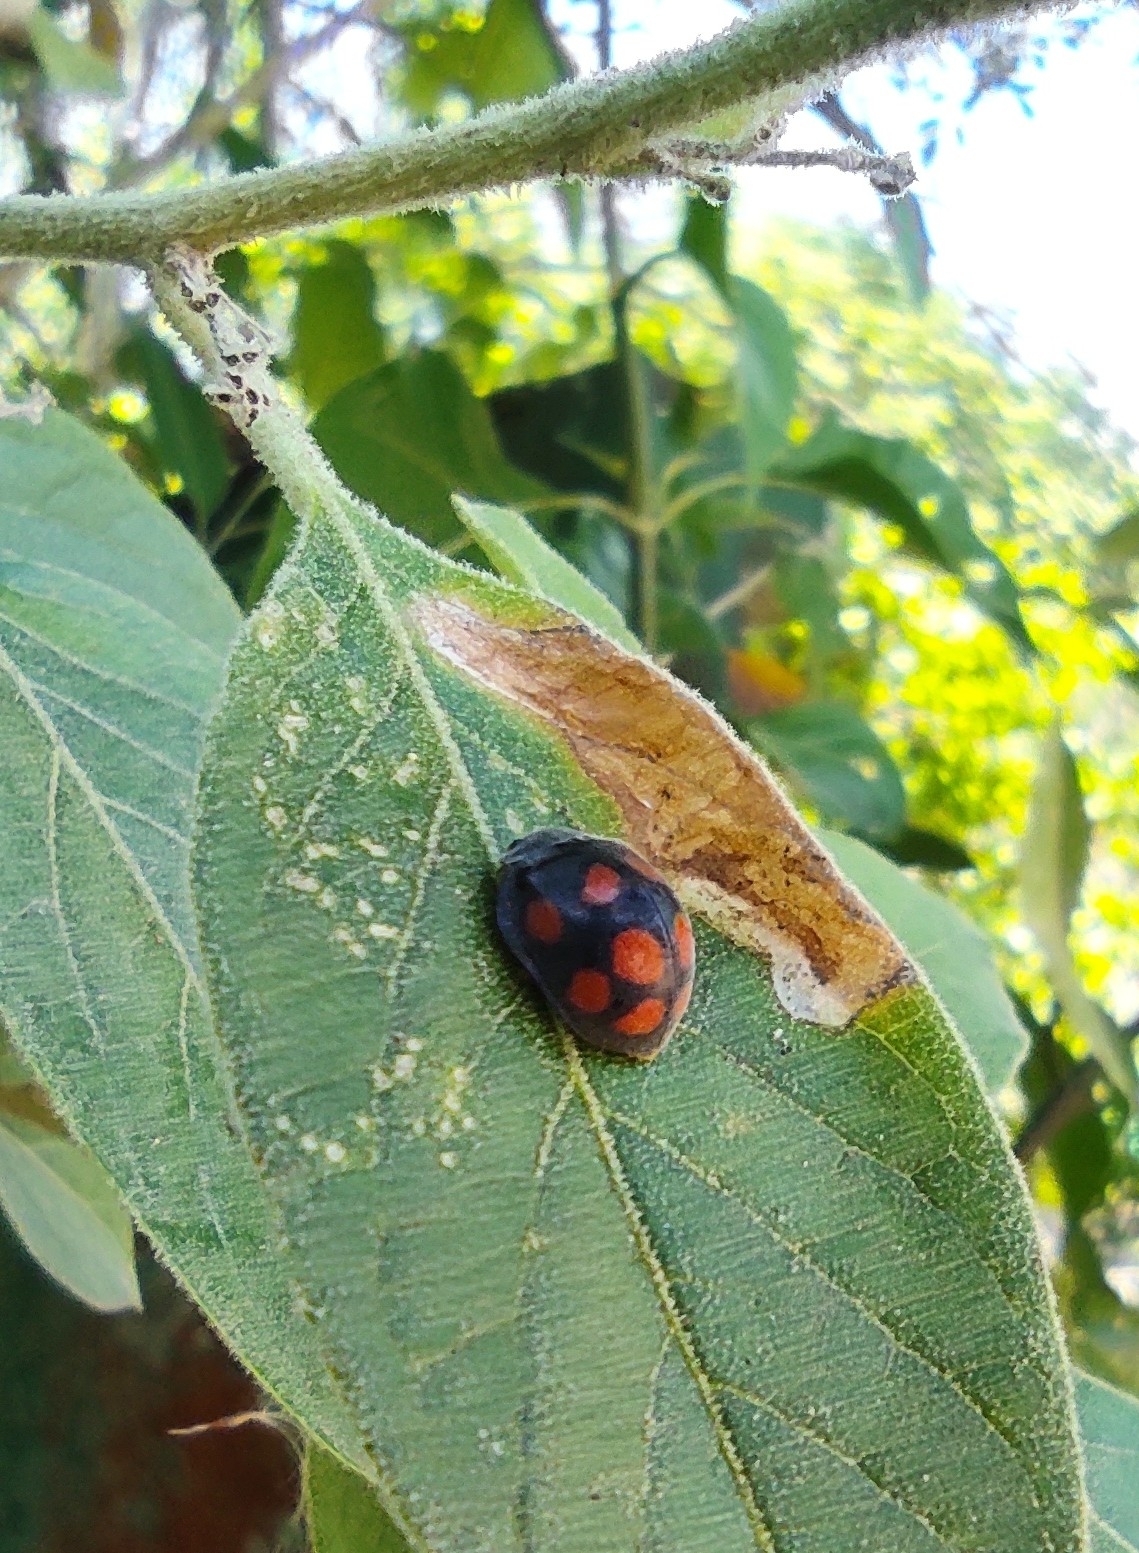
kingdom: Animalia
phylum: Arthropoda
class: Insecta
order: Coleoptera
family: Coccinellidae
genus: Epilachna
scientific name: Epilachna
